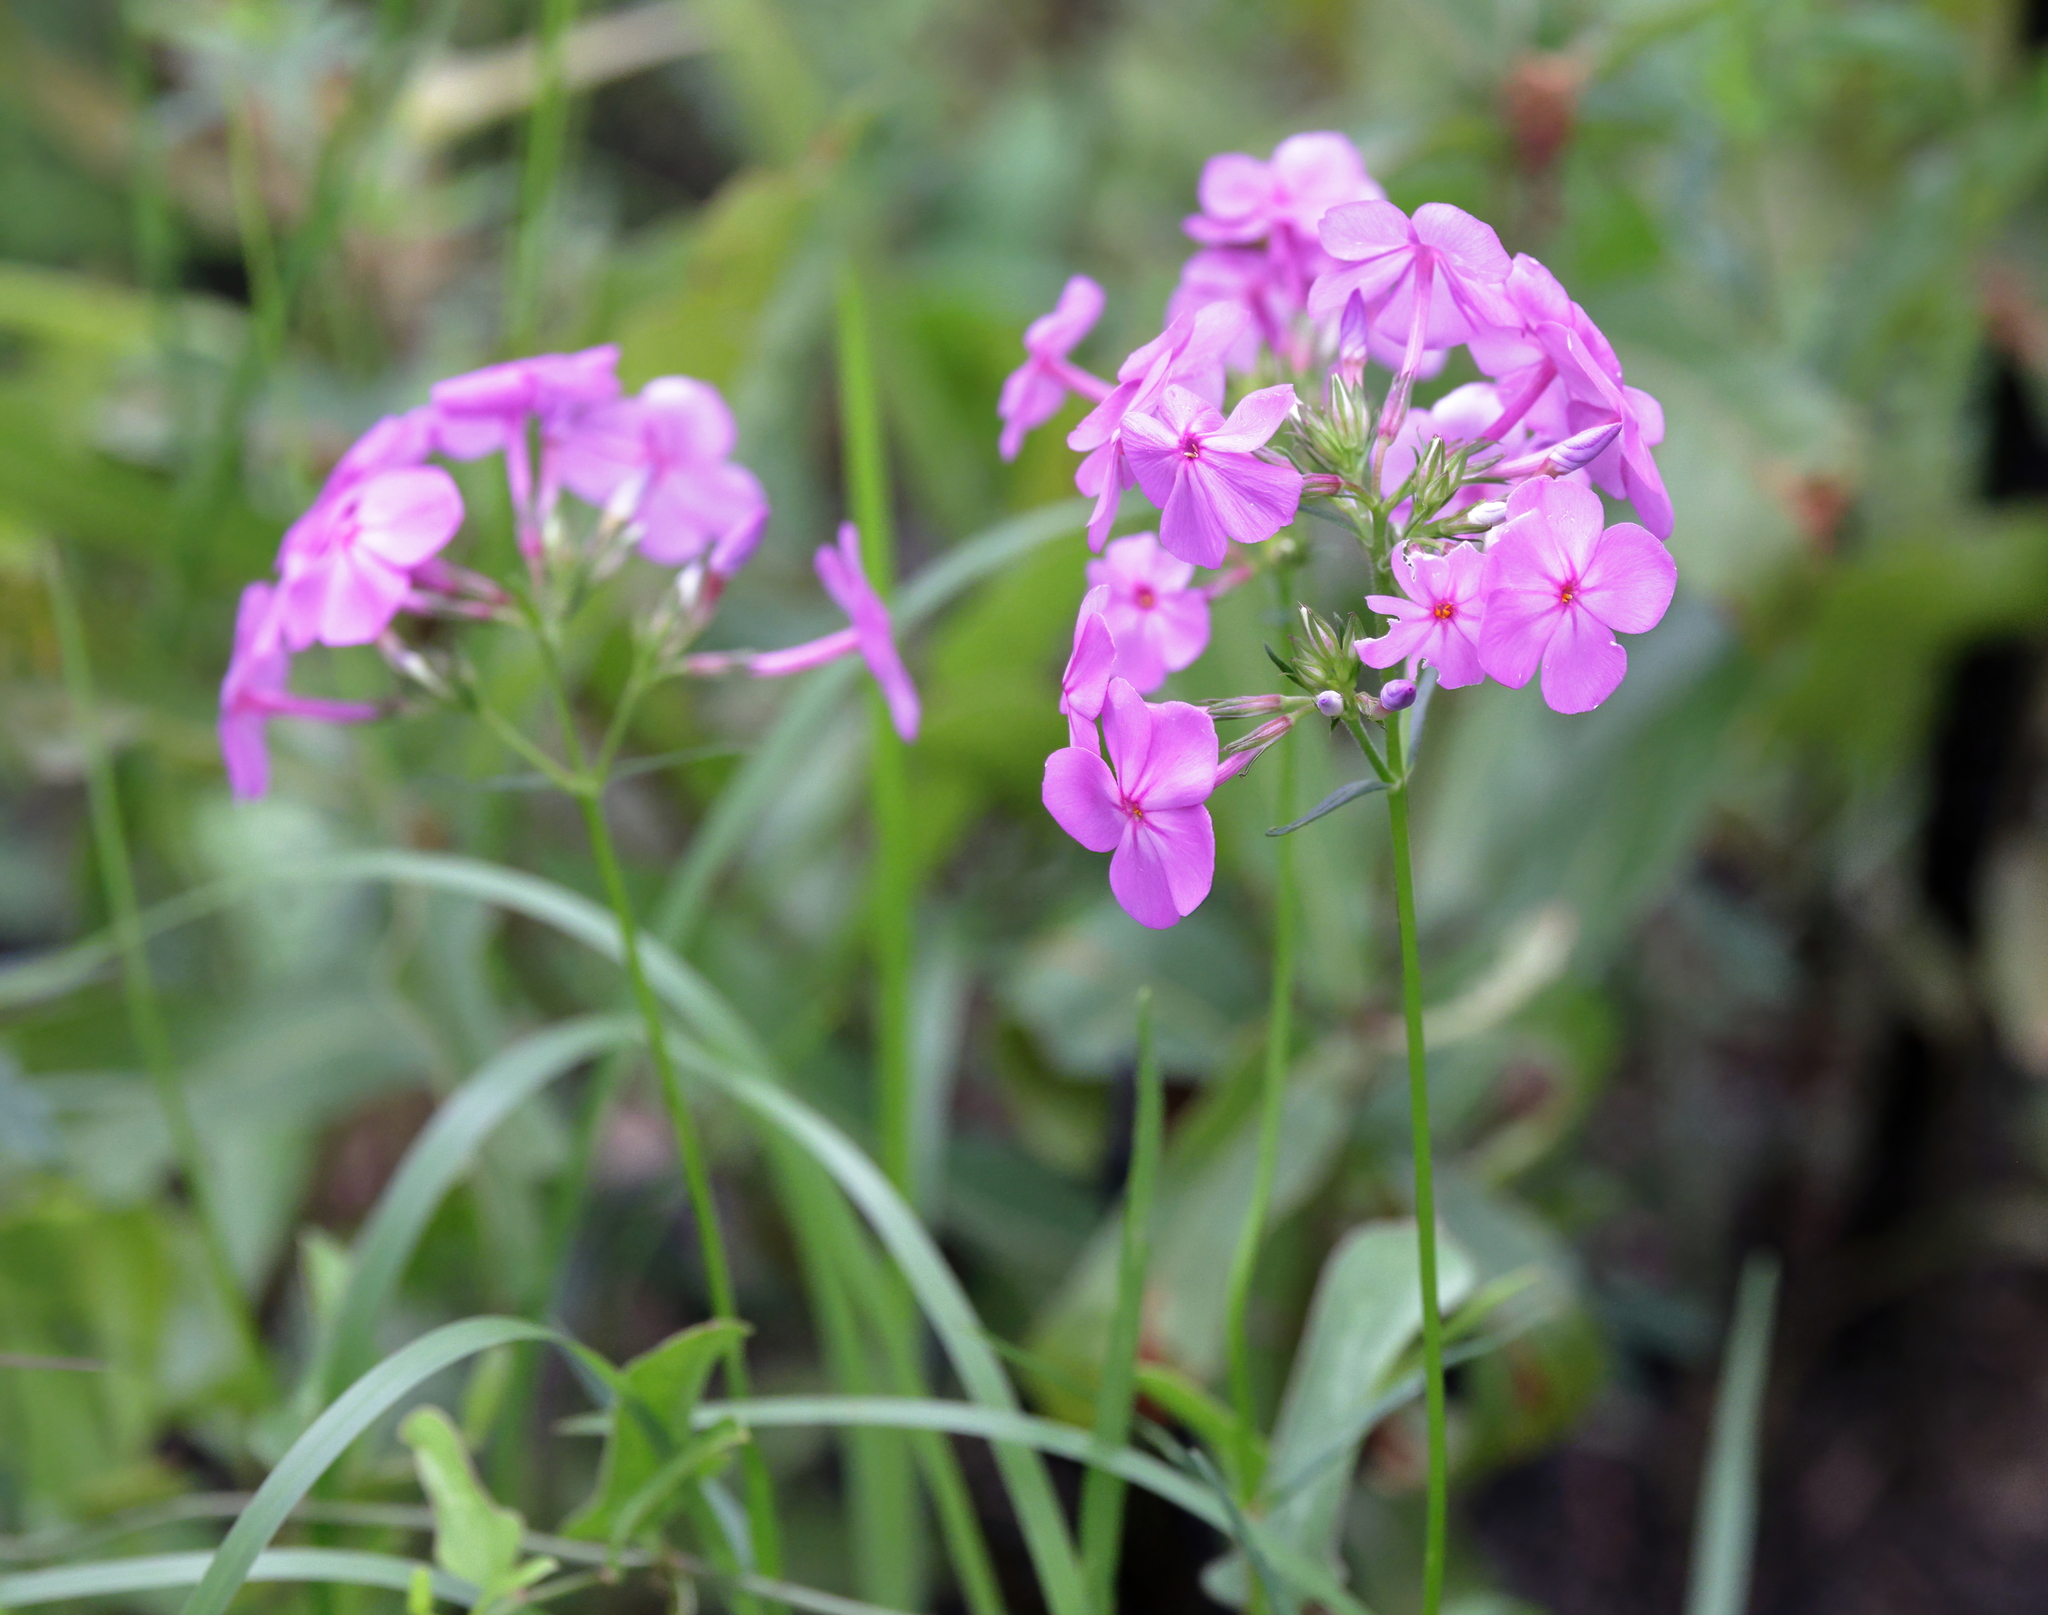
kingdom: Plantae
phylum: Tracheophyta
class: Magnoliopsida
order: Ericales
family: Polemoniaceae
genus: Phlox
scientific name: Phlox carolina
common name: Thick-leaf phlox
